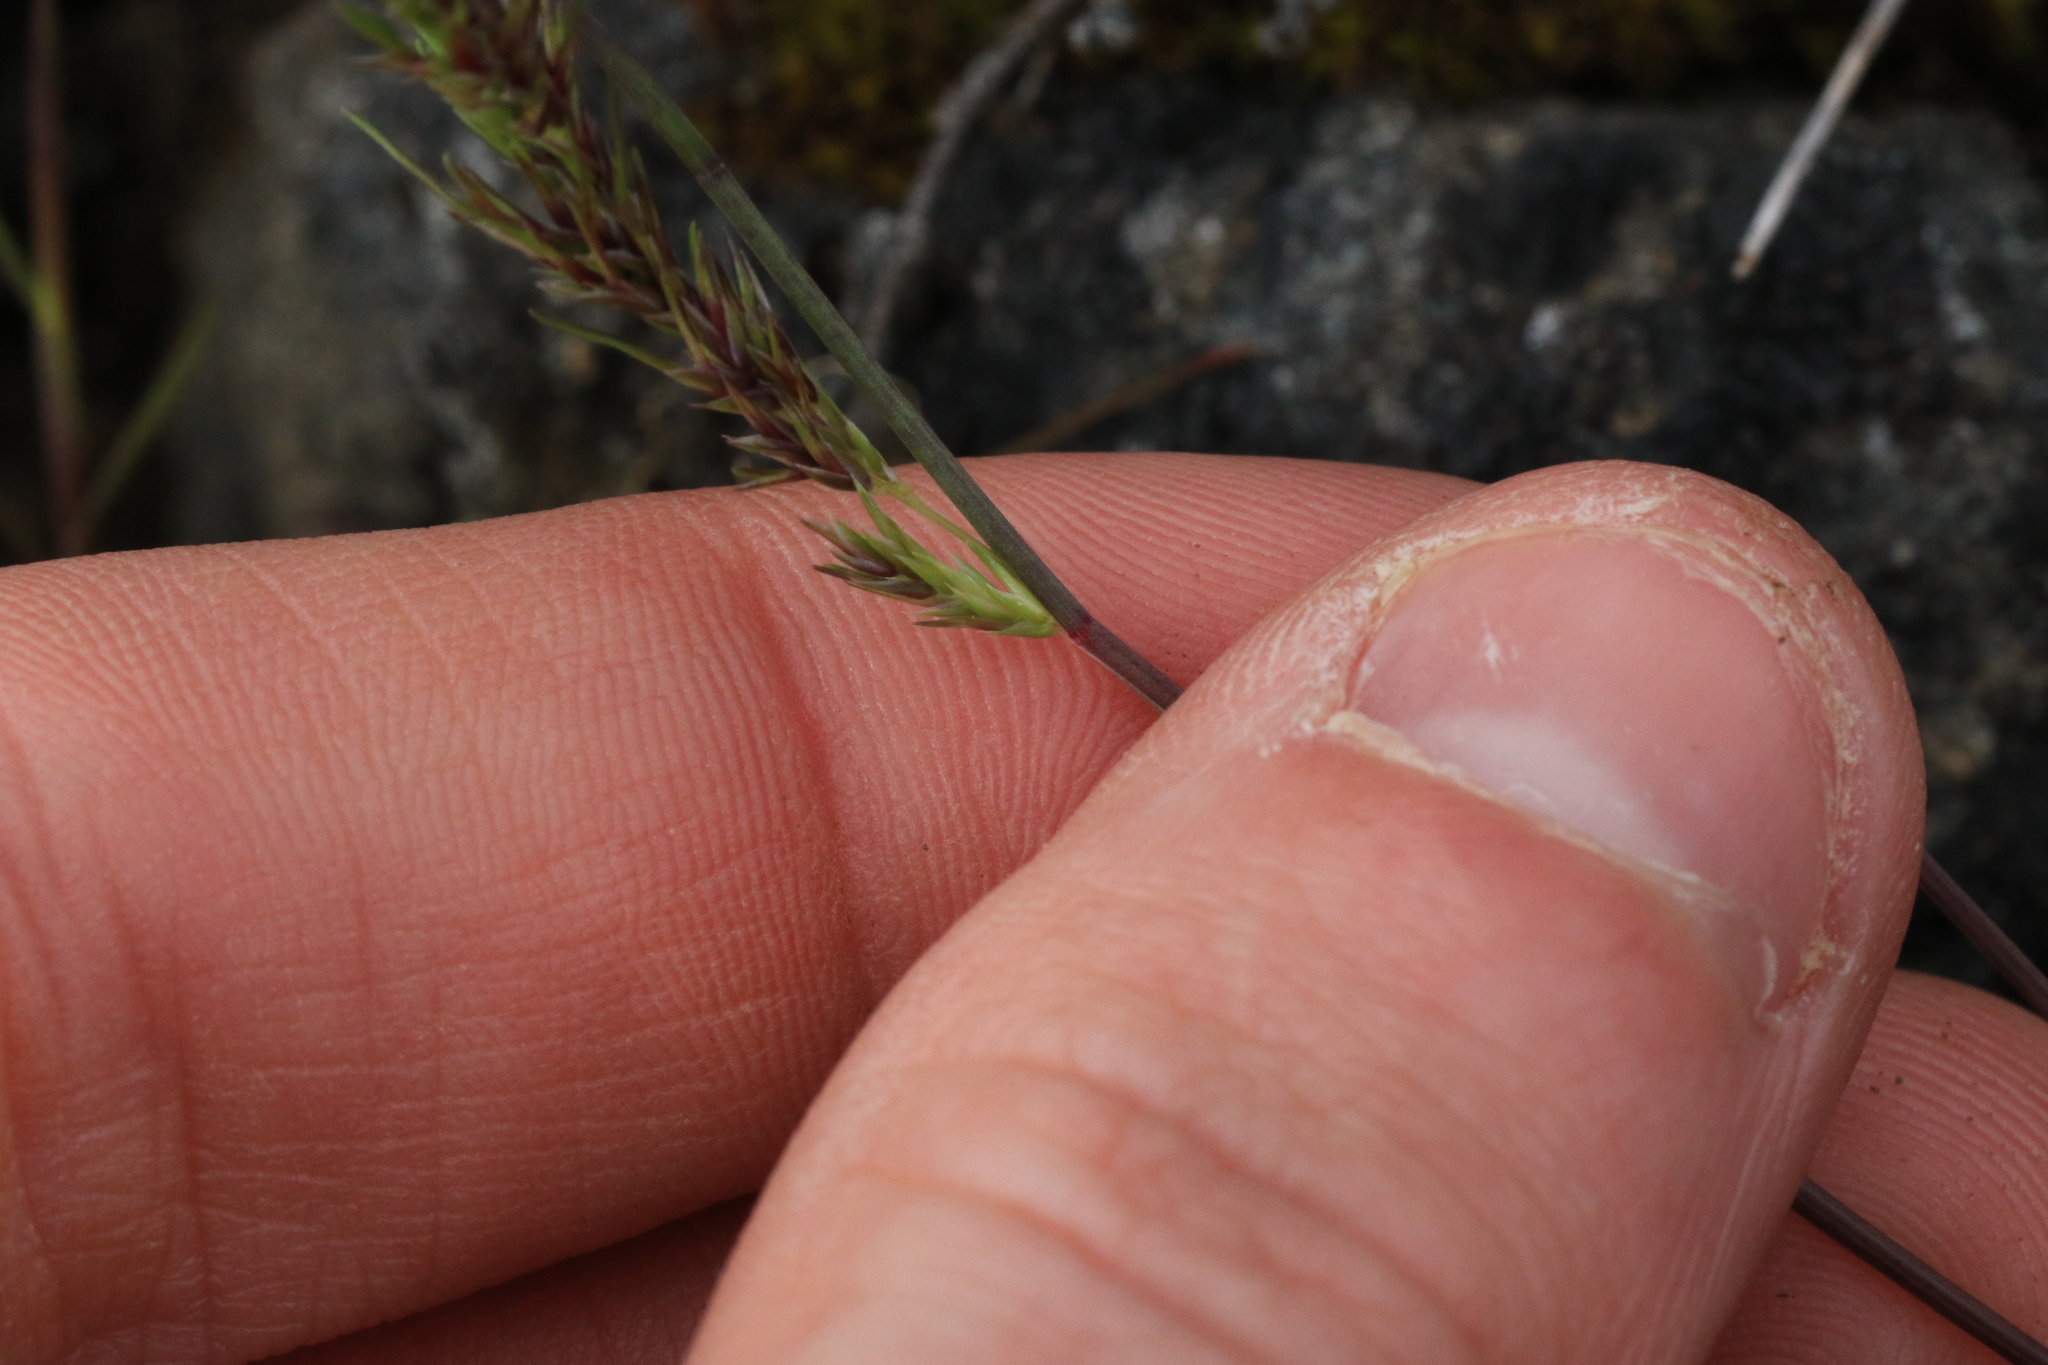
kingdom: Plantae
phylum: Tracheophyta
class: Liliopsida
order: Poales
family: Poaceae
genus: Poa
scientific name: Poa bulbosa
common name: Bulbous bluegrass
